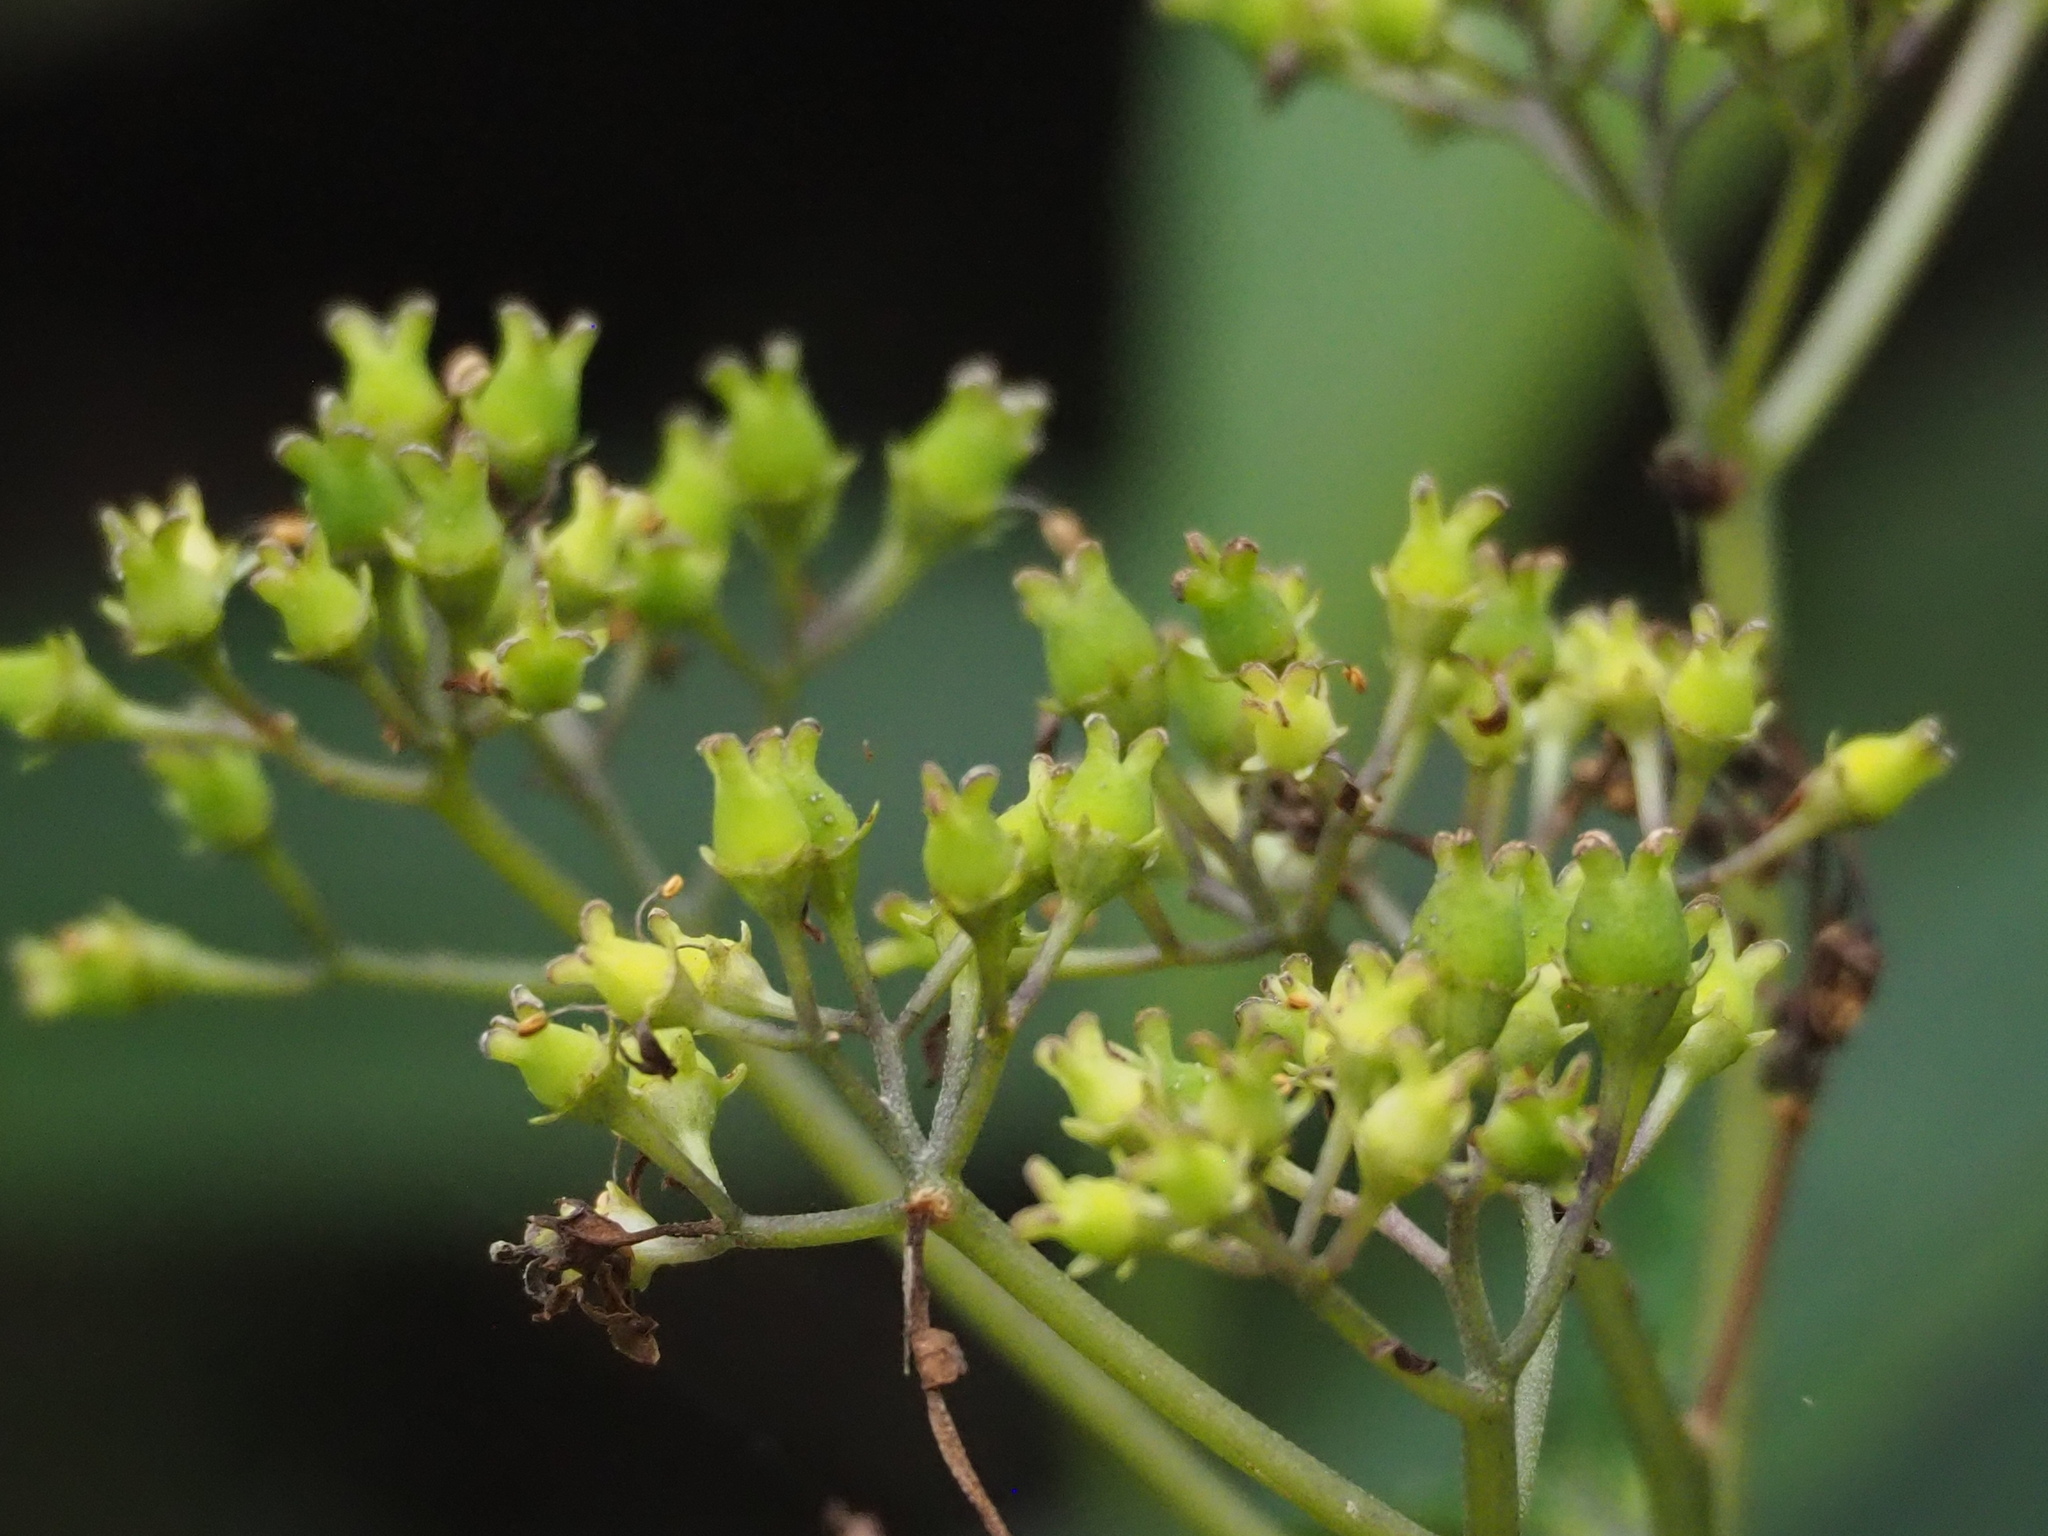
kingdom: Plantae
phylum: Tracheophyta
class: Magnoliopsida
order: Cornales
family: Hydrangeaceae
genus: Hydrangea
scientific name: Hydrangea chinensis
